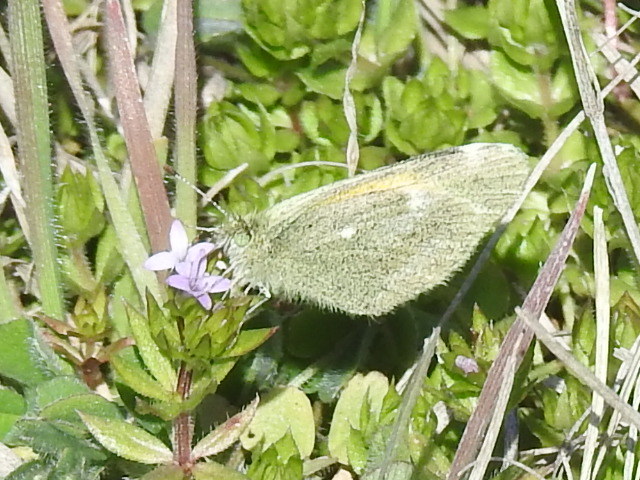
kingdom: Animalia
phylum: Arthropoda
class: Insecta
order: Lepidoptera
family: Pieridae
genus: Nathalis
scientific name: Nathalis iole
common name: Dainty sulphur
